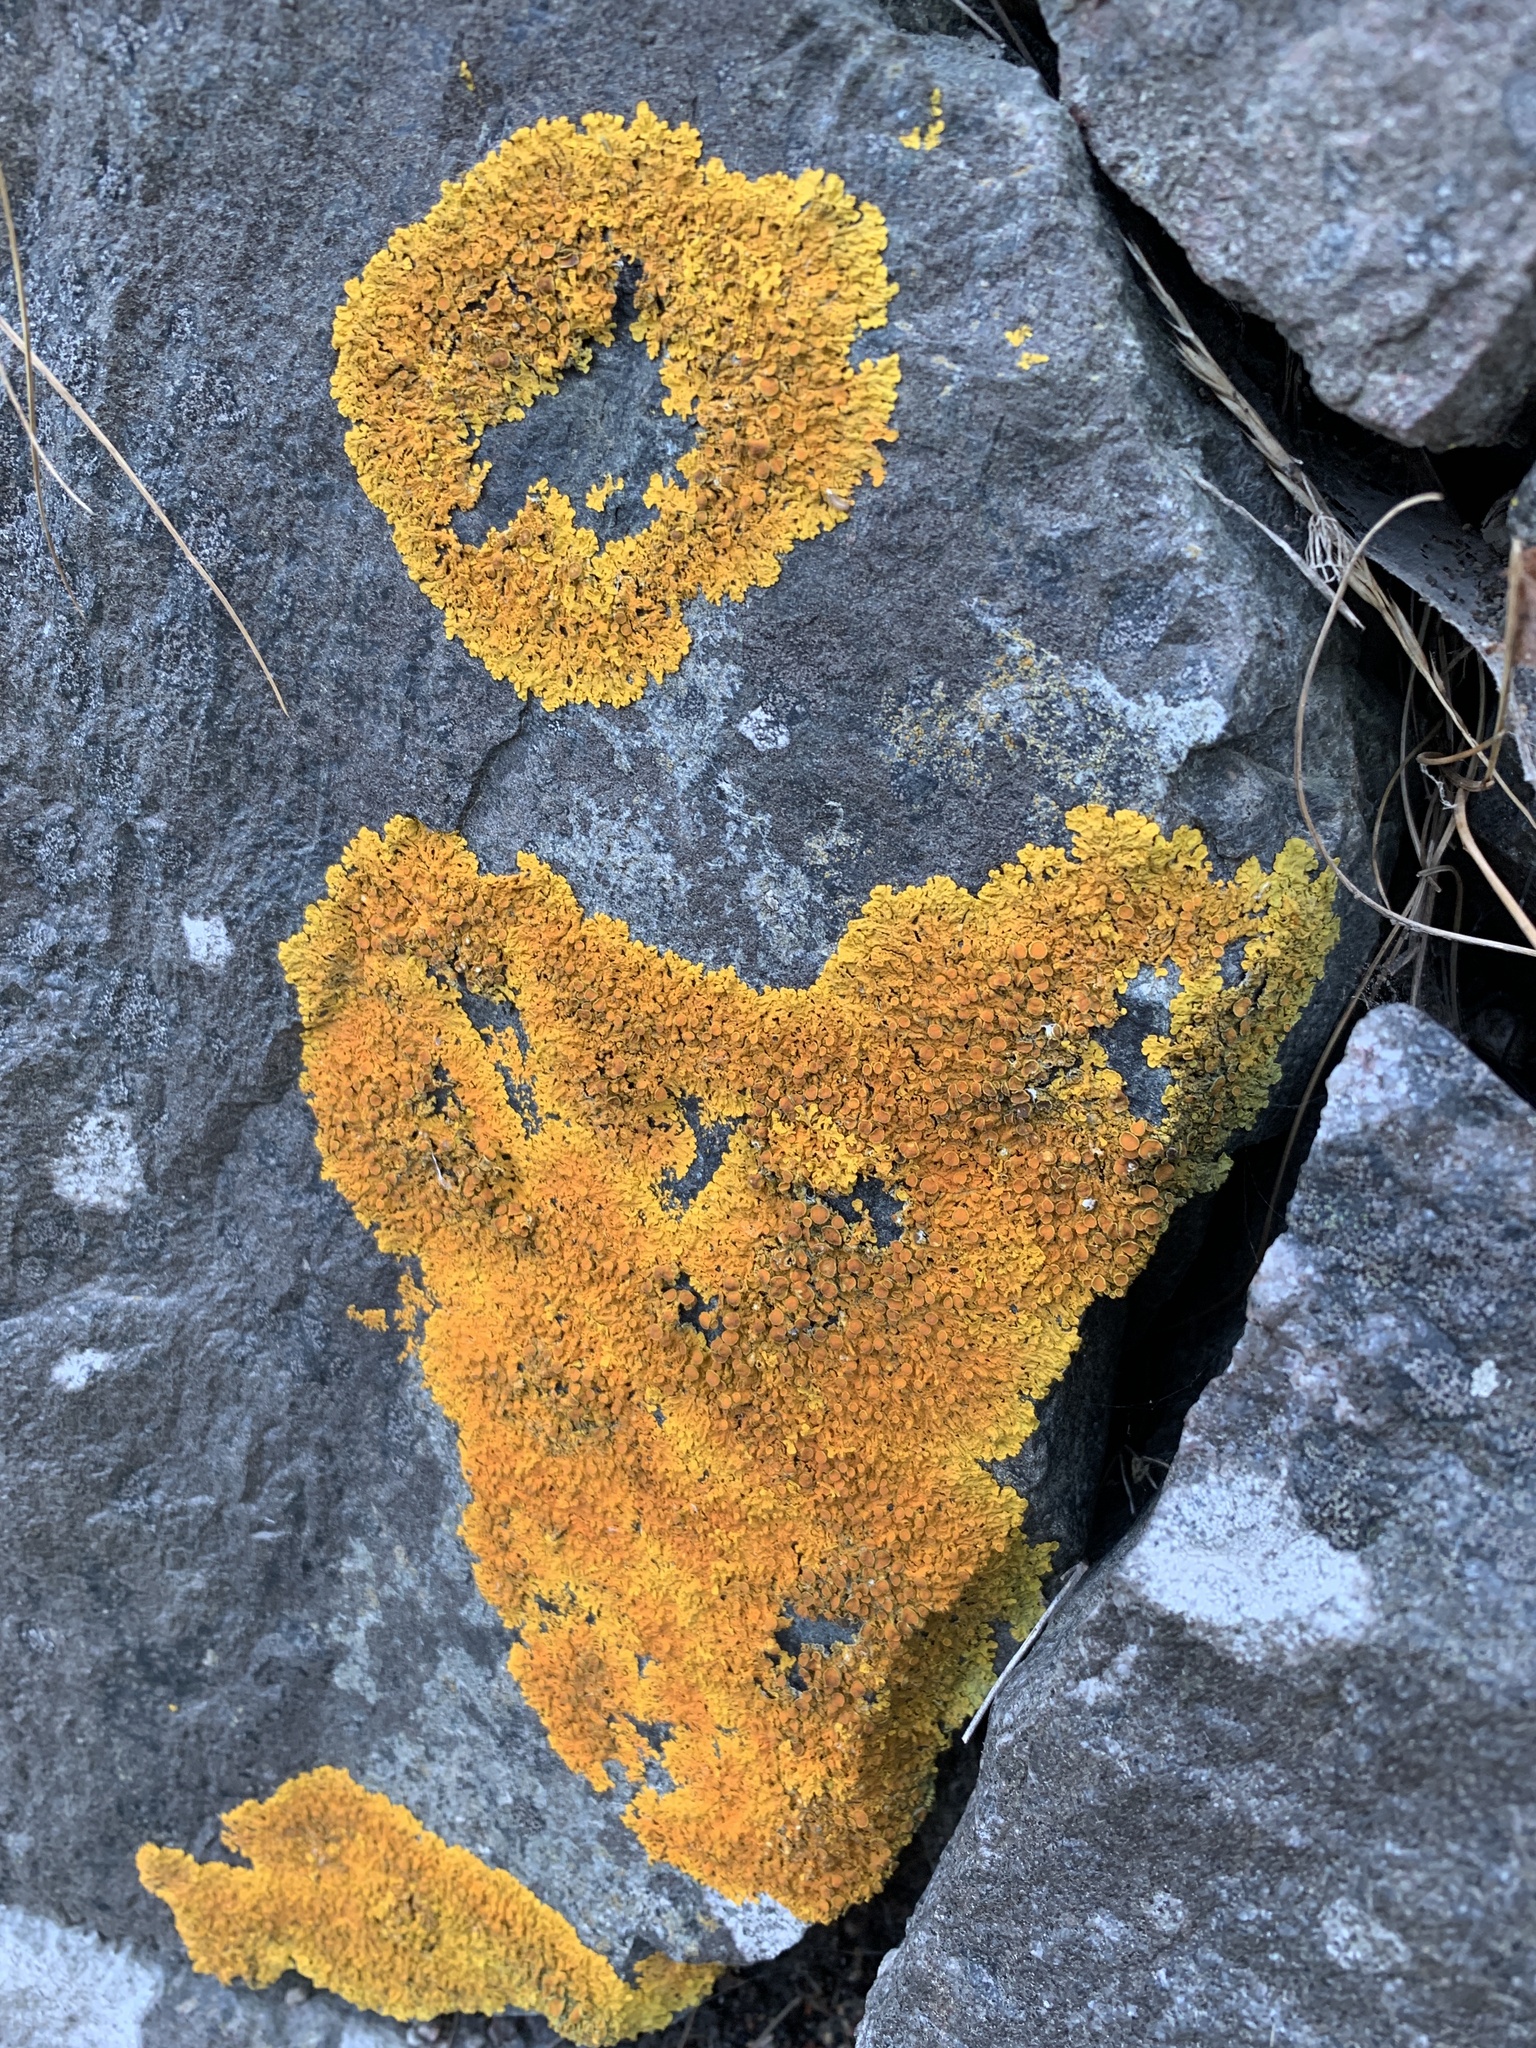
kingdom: Fungi
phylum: Ascomycota
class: Lecanoromycetes
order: Teloschistales
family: Teloschistaceae
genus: Xanthoria
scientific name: Xanthoria parietina
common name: Common orange lichen
